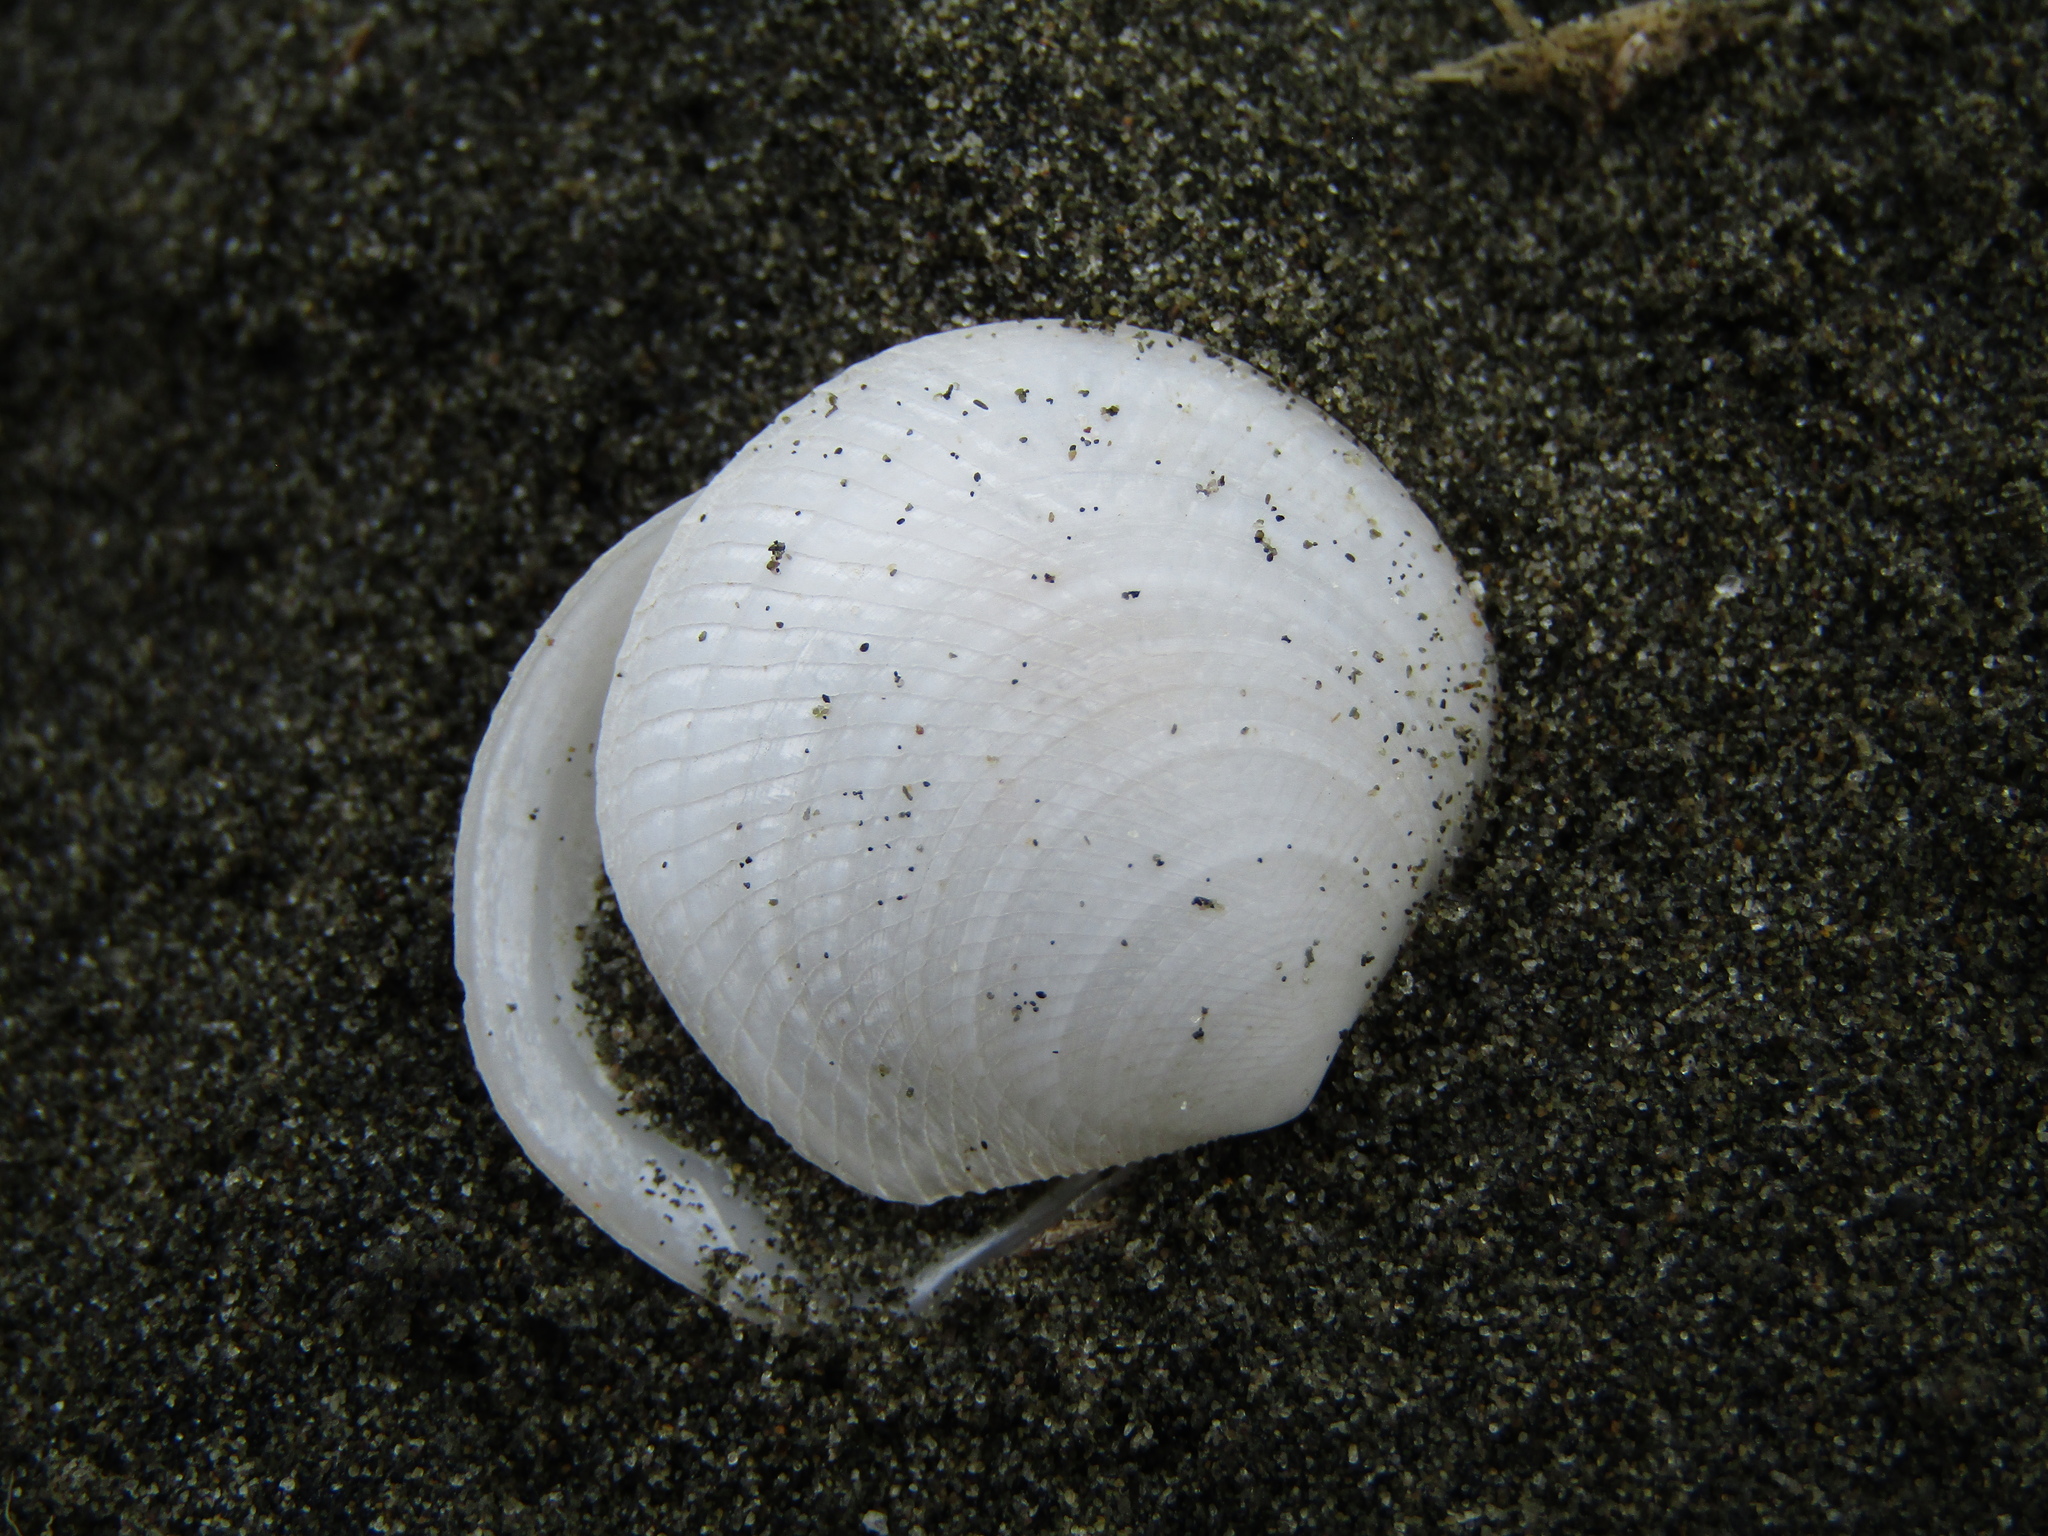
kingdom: Animalia
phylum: Mollusca
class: Bivalvia
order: Lucinida
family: Lucinidae
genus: Divalucina
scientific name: Divalucina cumingi
